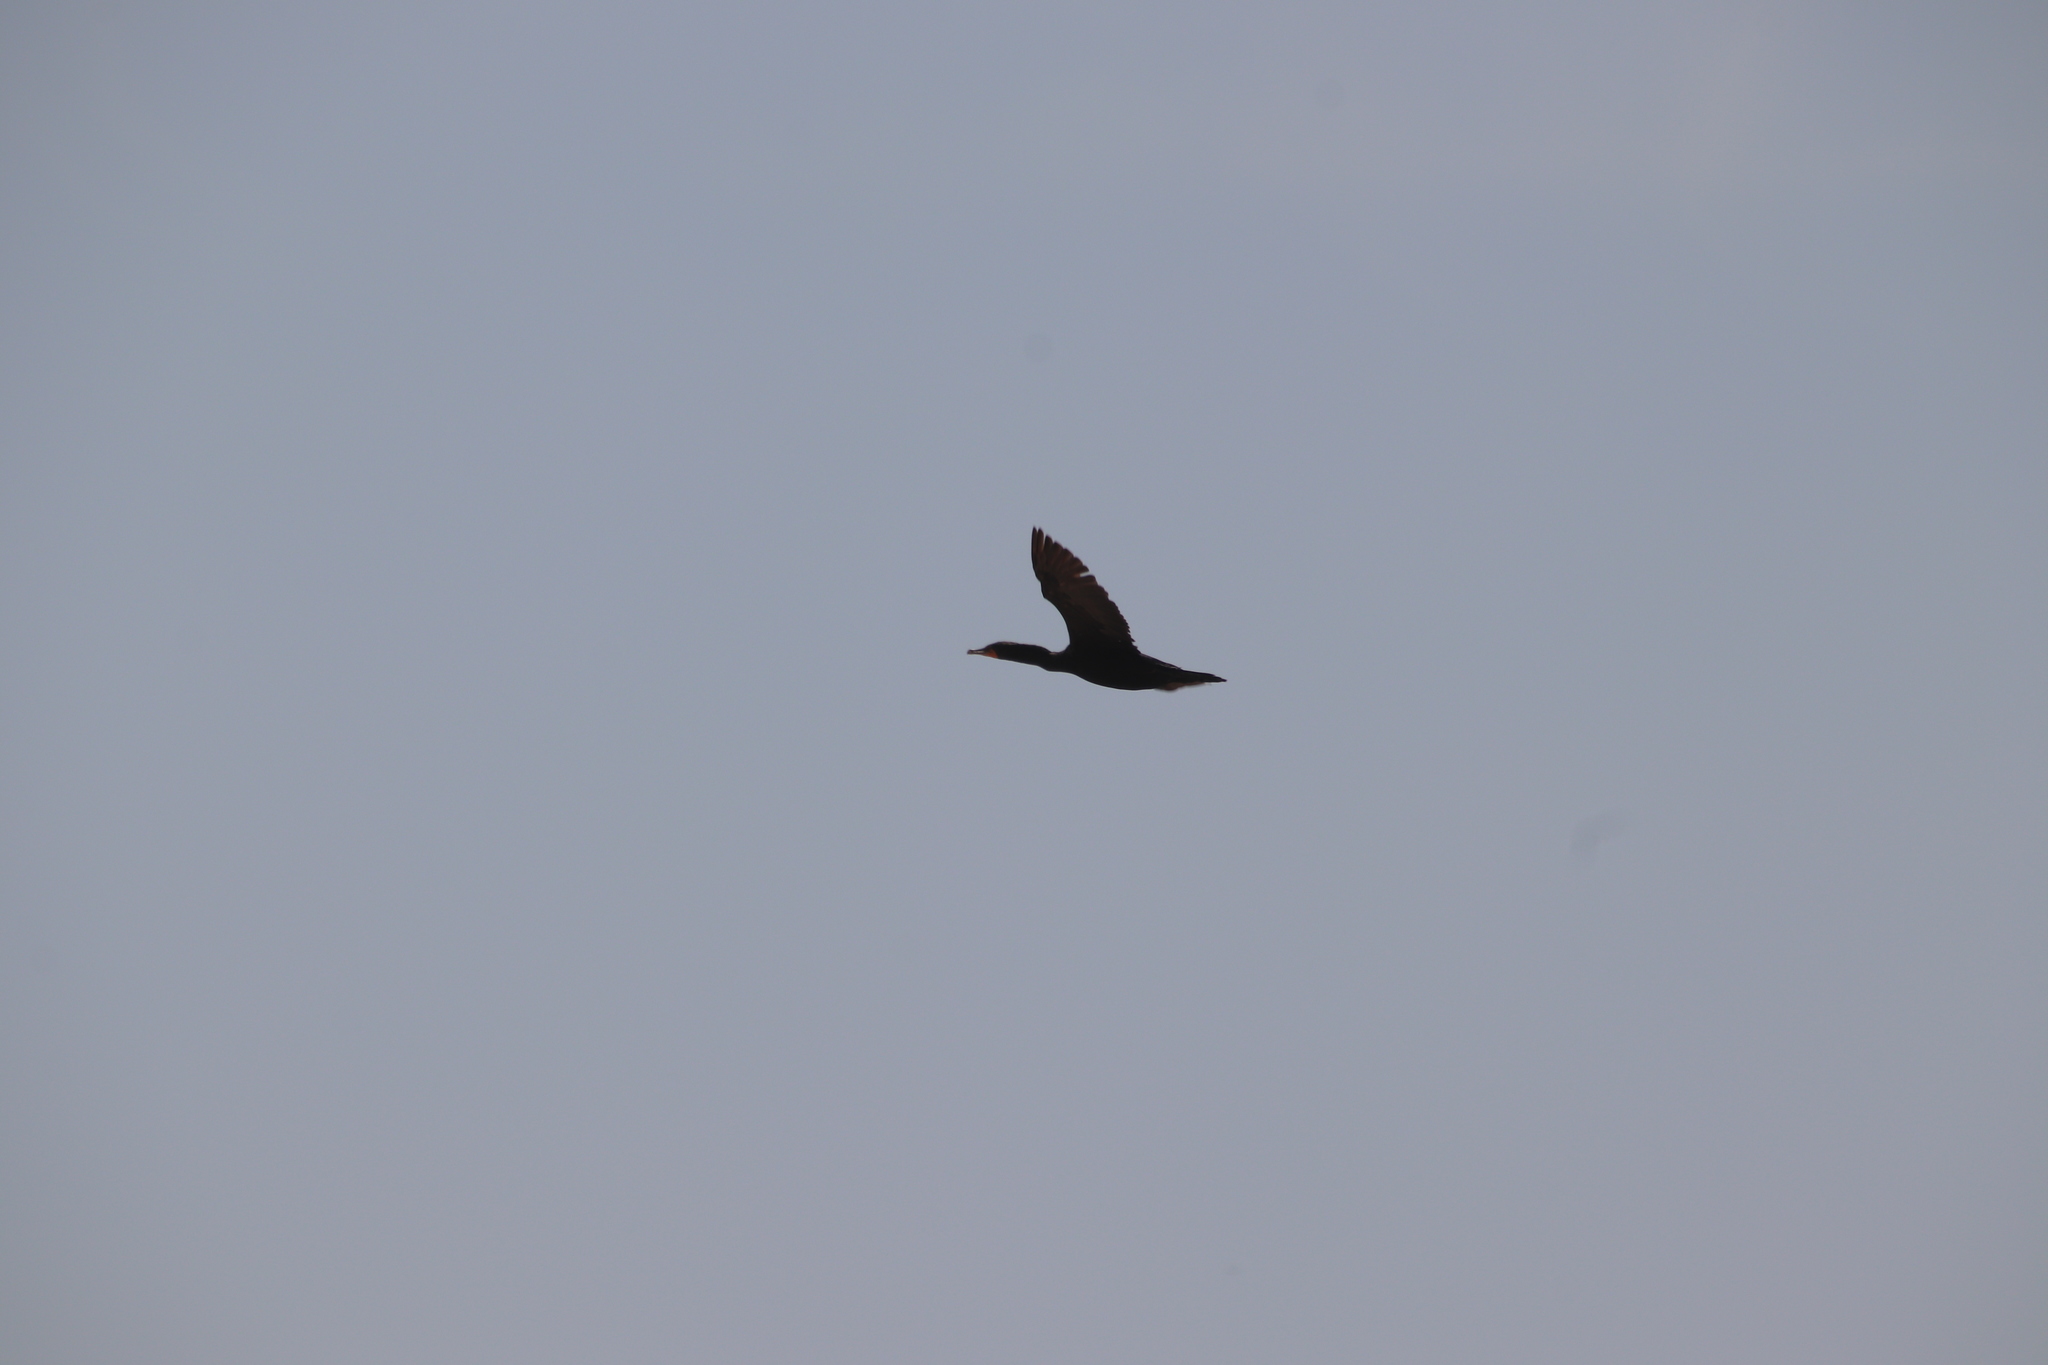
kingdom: Animalia
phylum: Chordata
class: Aves
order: Suliformes
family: Phalacrocoracidae
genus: Phalacrocorax
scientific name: Phalacrocorax auritus
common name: Double-crested cormorant
